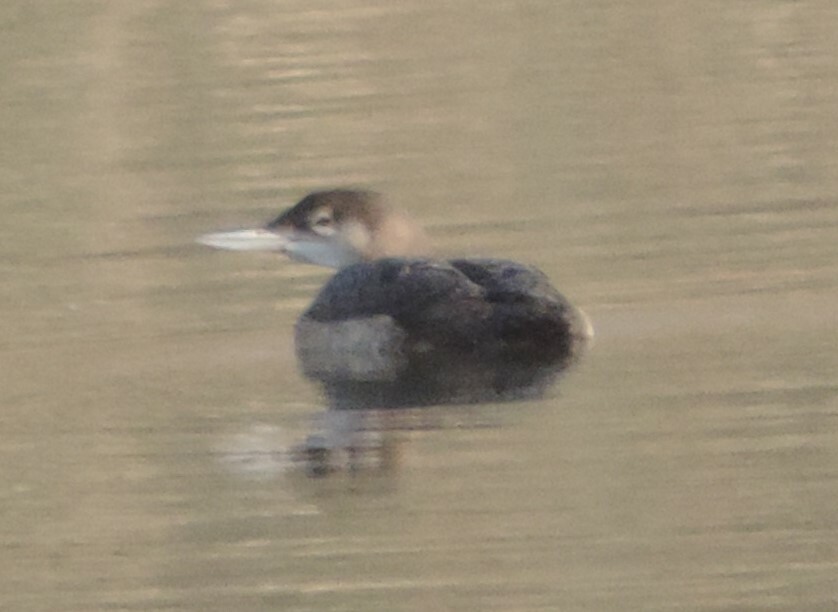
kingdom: Animalia
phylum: Chordata
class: Aves
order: Gaviiformes
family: Gaviidae
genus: Gavia
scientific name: Gavia immer
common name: Common loon
